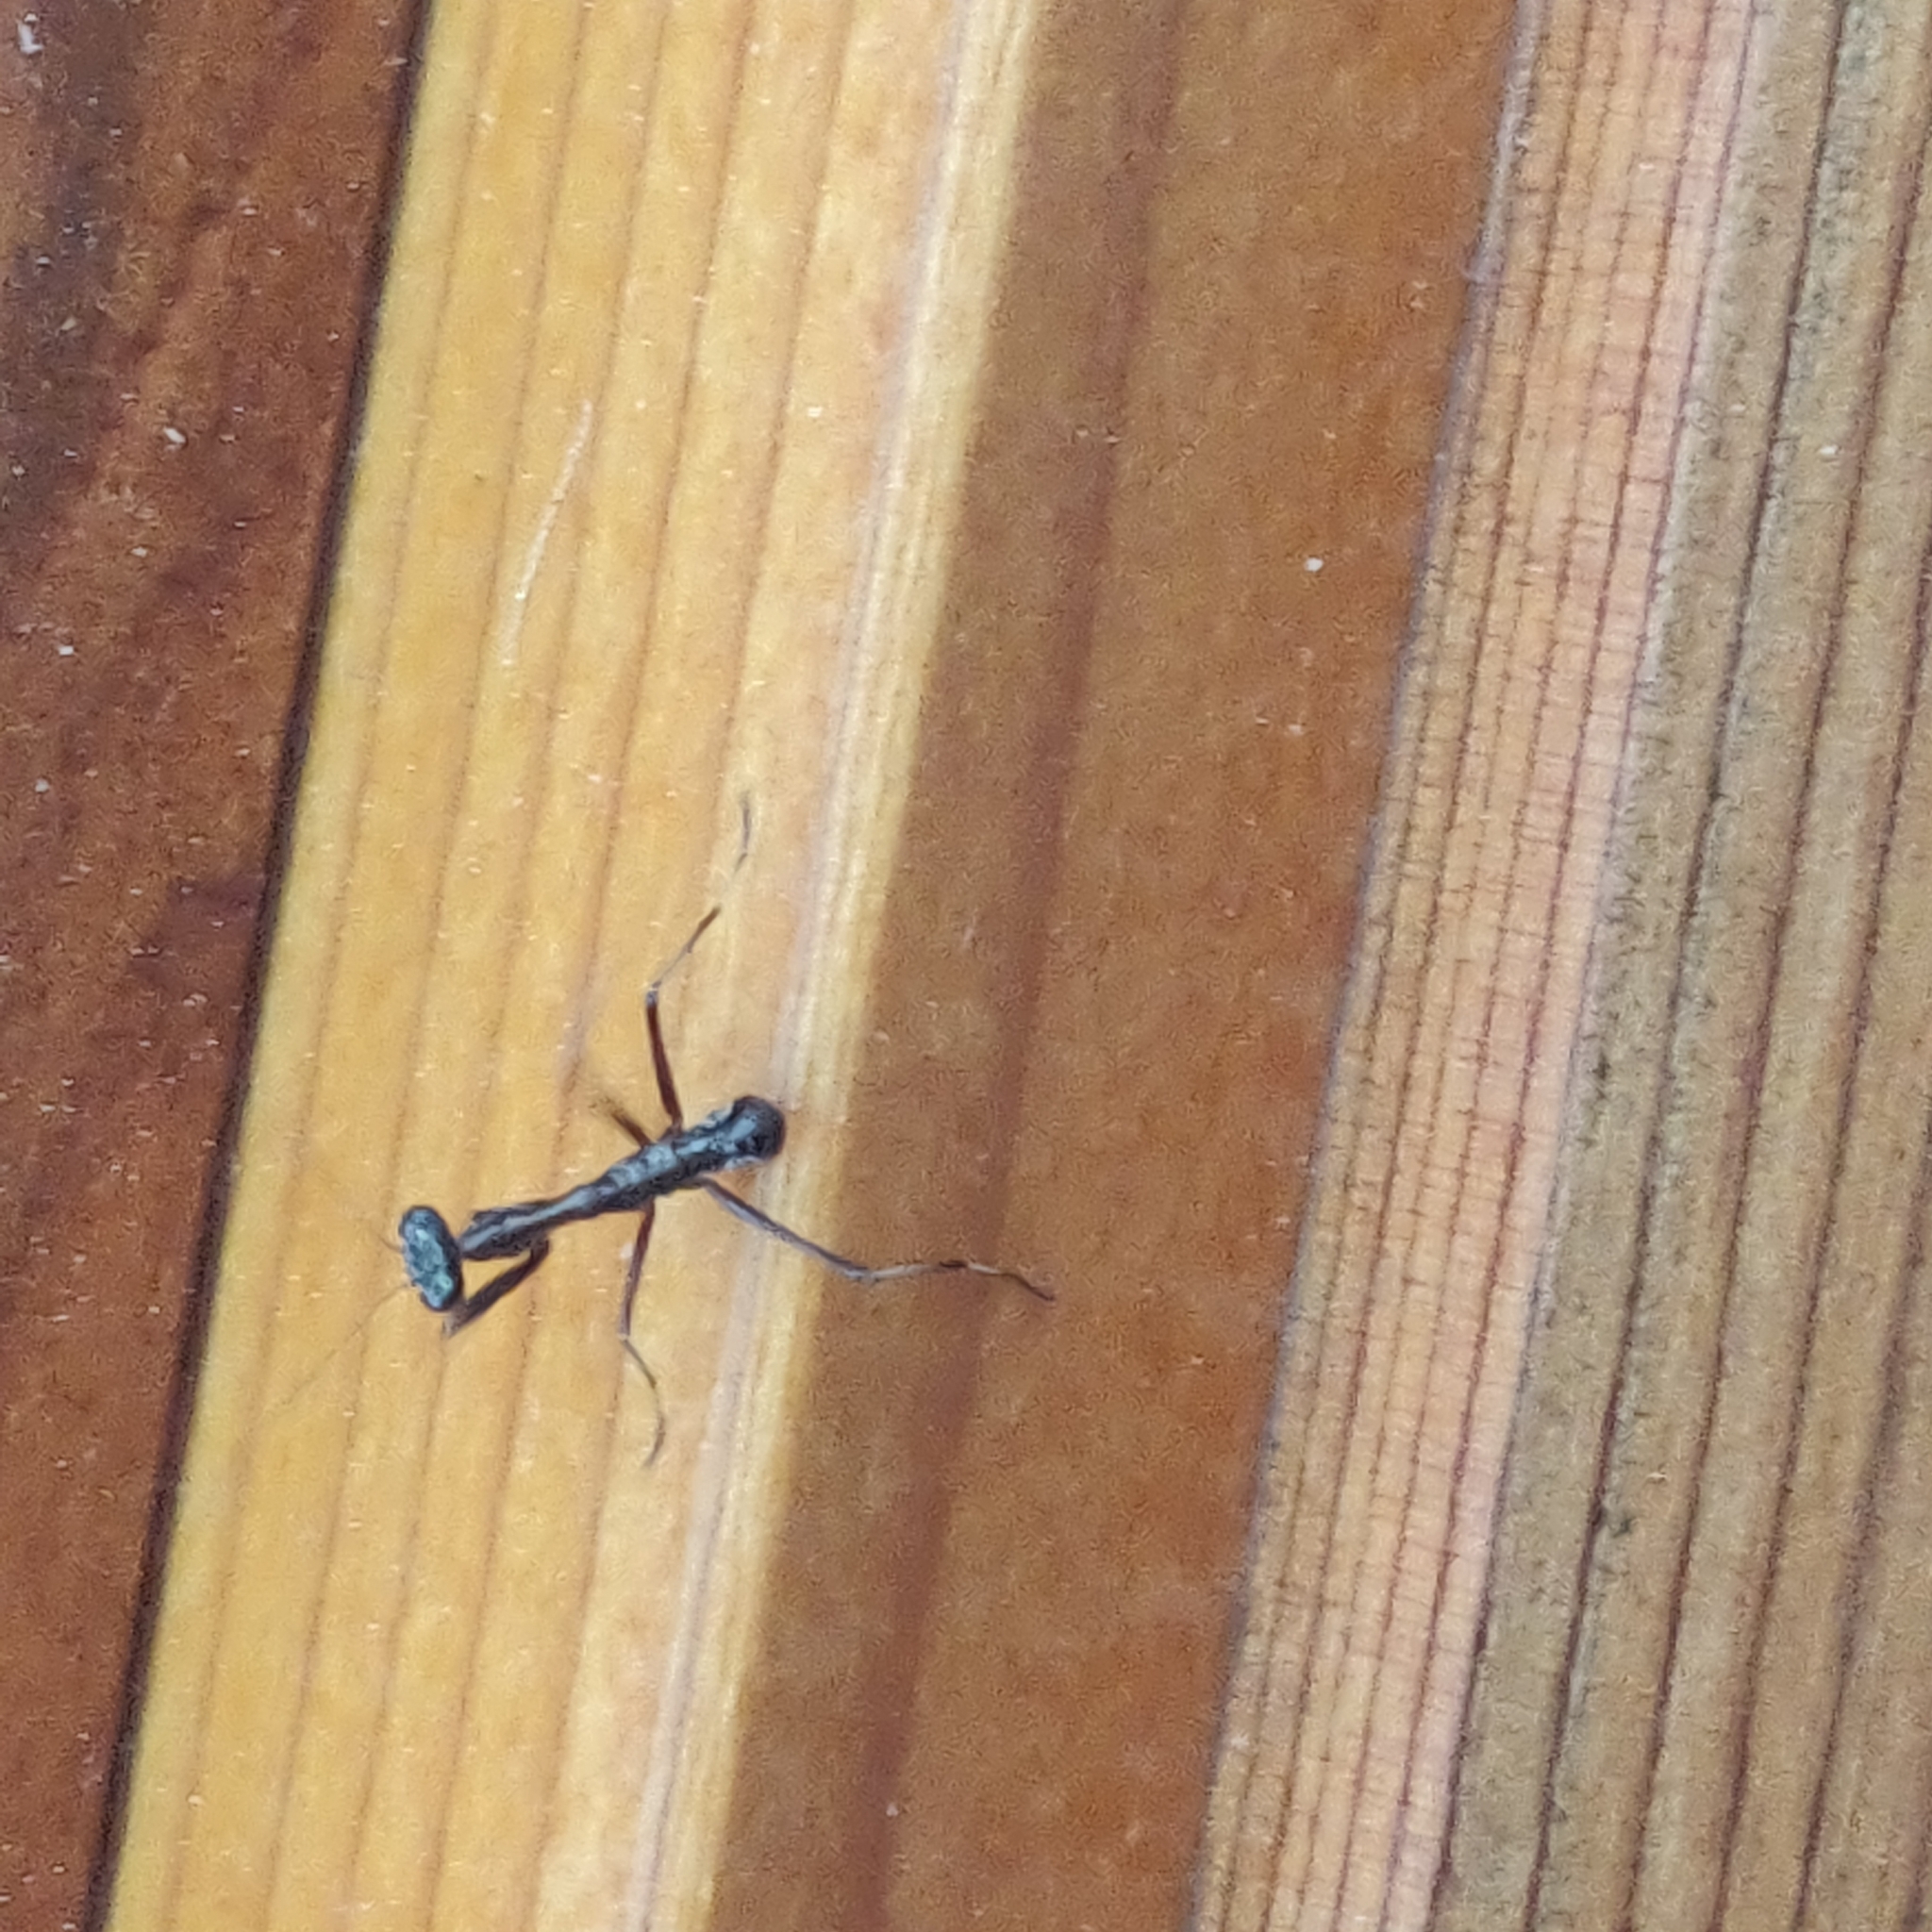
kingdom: Animalia
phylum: Arthropoda
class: Insecta
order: Mantodea
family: Mantidae
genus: Pseudomantis
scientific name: Pseudomantis albofimbriata
